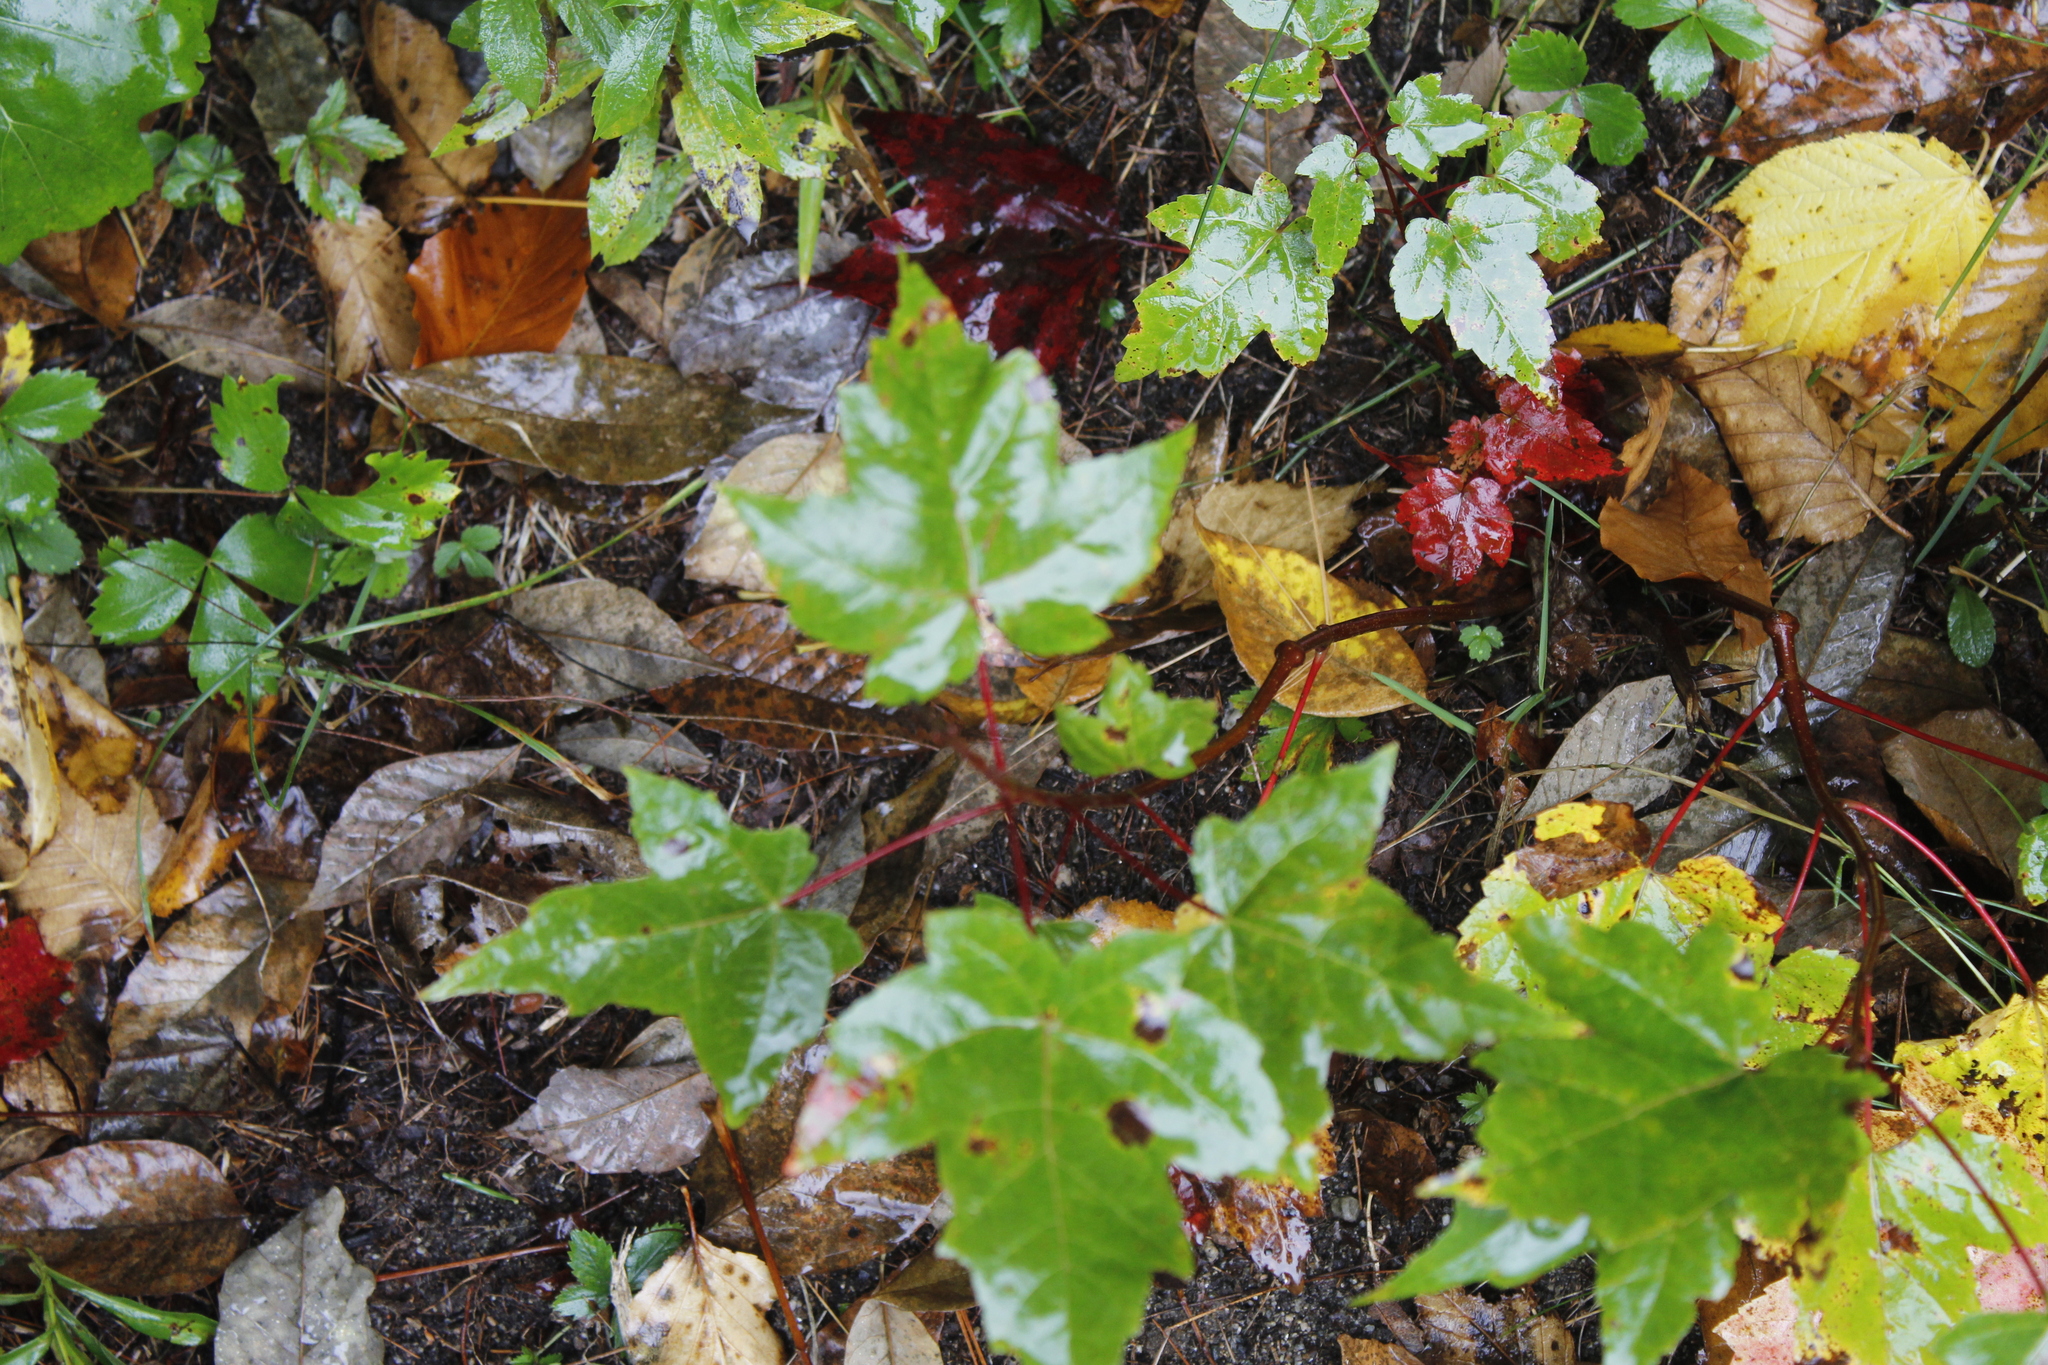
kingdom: Plantae
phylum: Tracheophyta
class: Magnoliopsida
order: Sapindales
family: Sapindaceae
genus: Acer
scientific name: Acer rubrum
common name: Red maple
